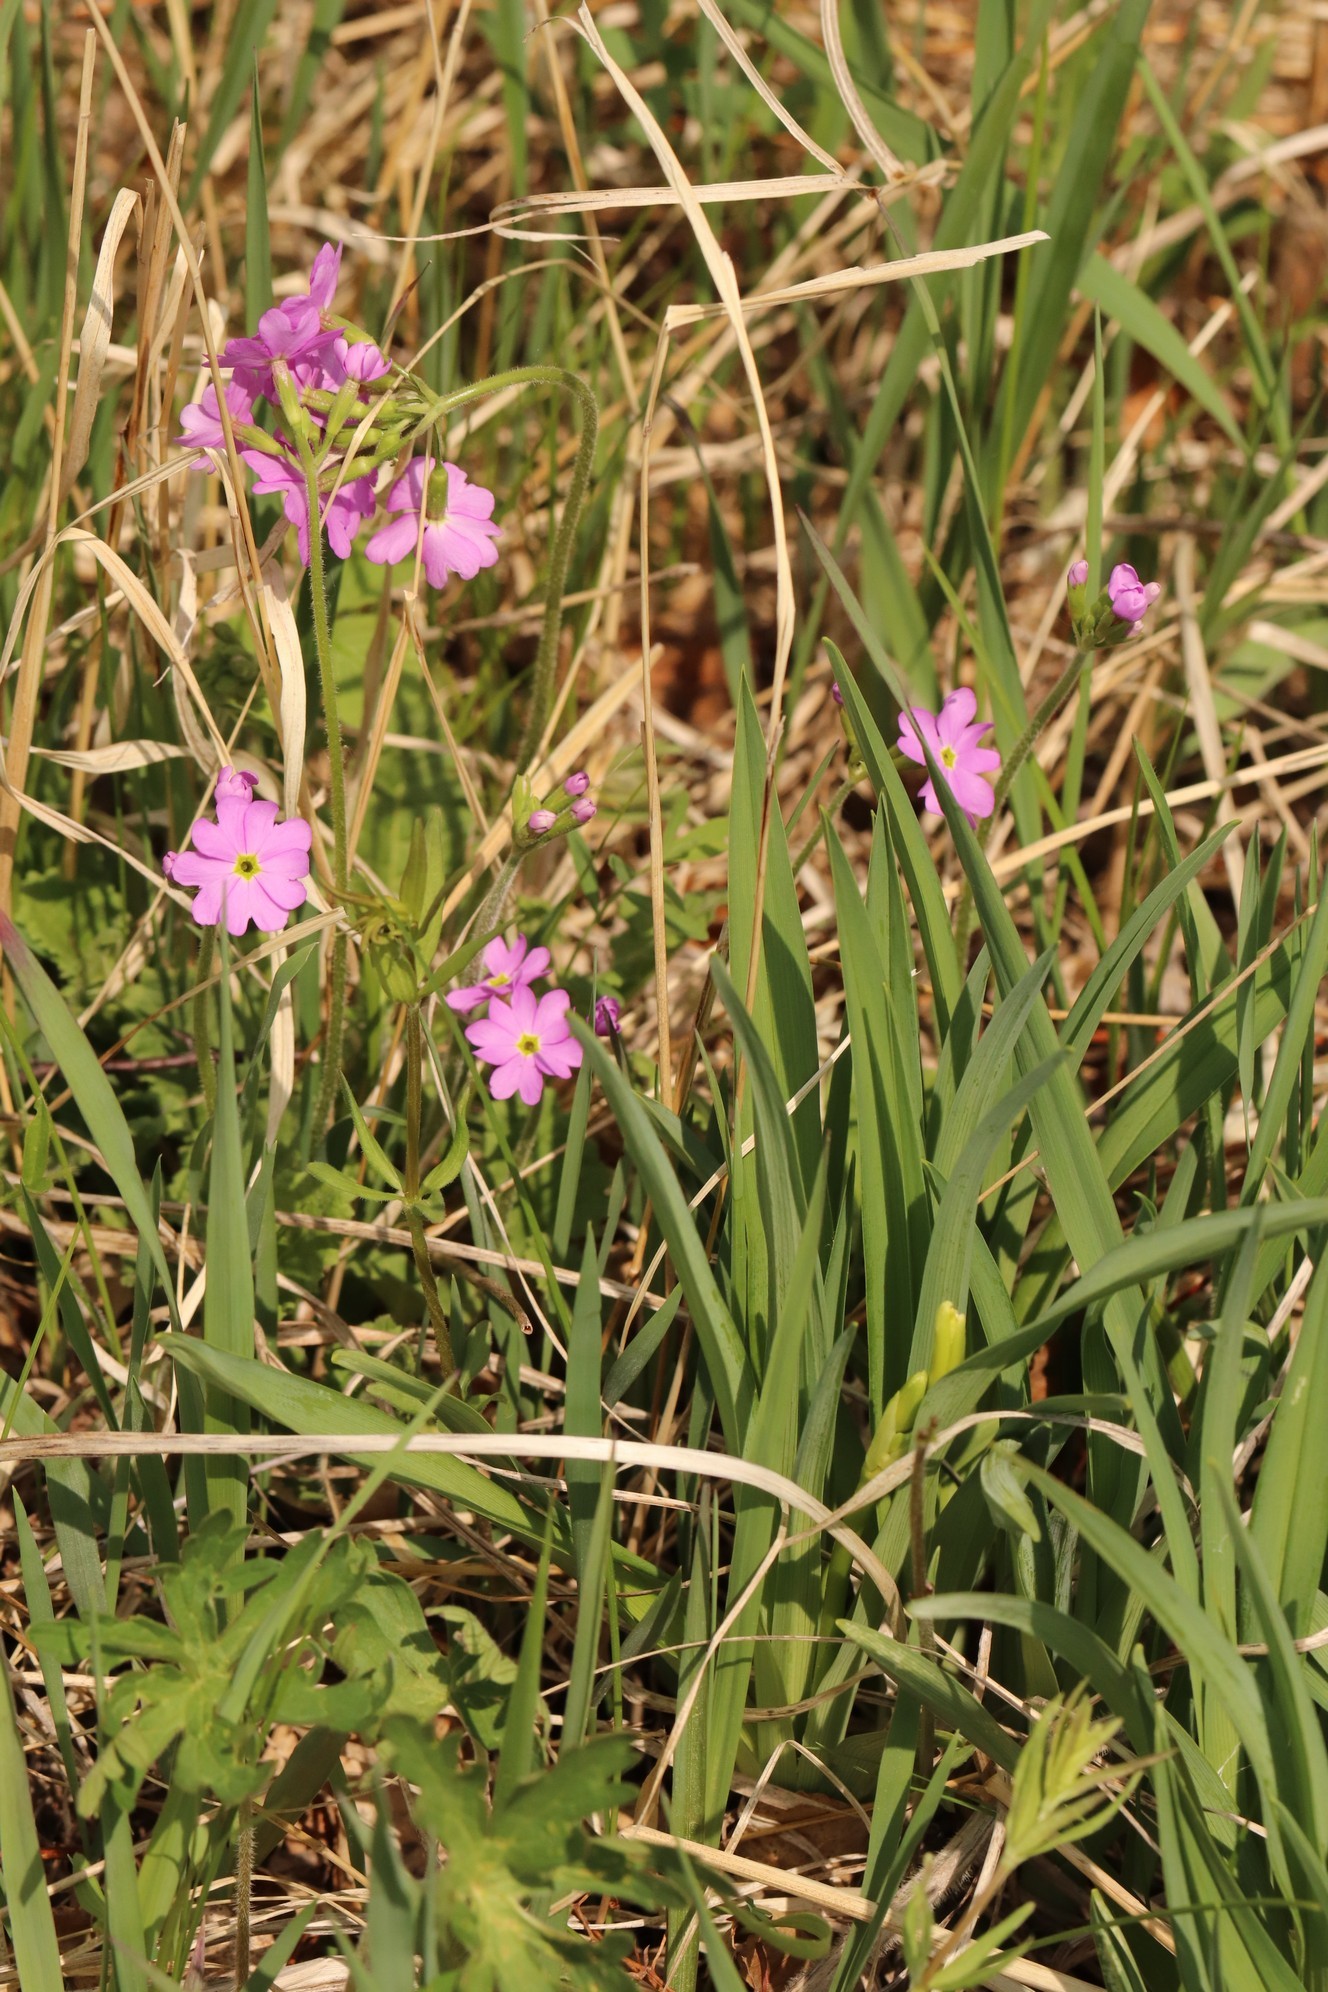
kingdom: Plantae
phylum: Tracheophyta
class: Magnoliopsida
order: Ericales
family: Primulaceae
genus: Primula
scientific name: Primula cortusoides
